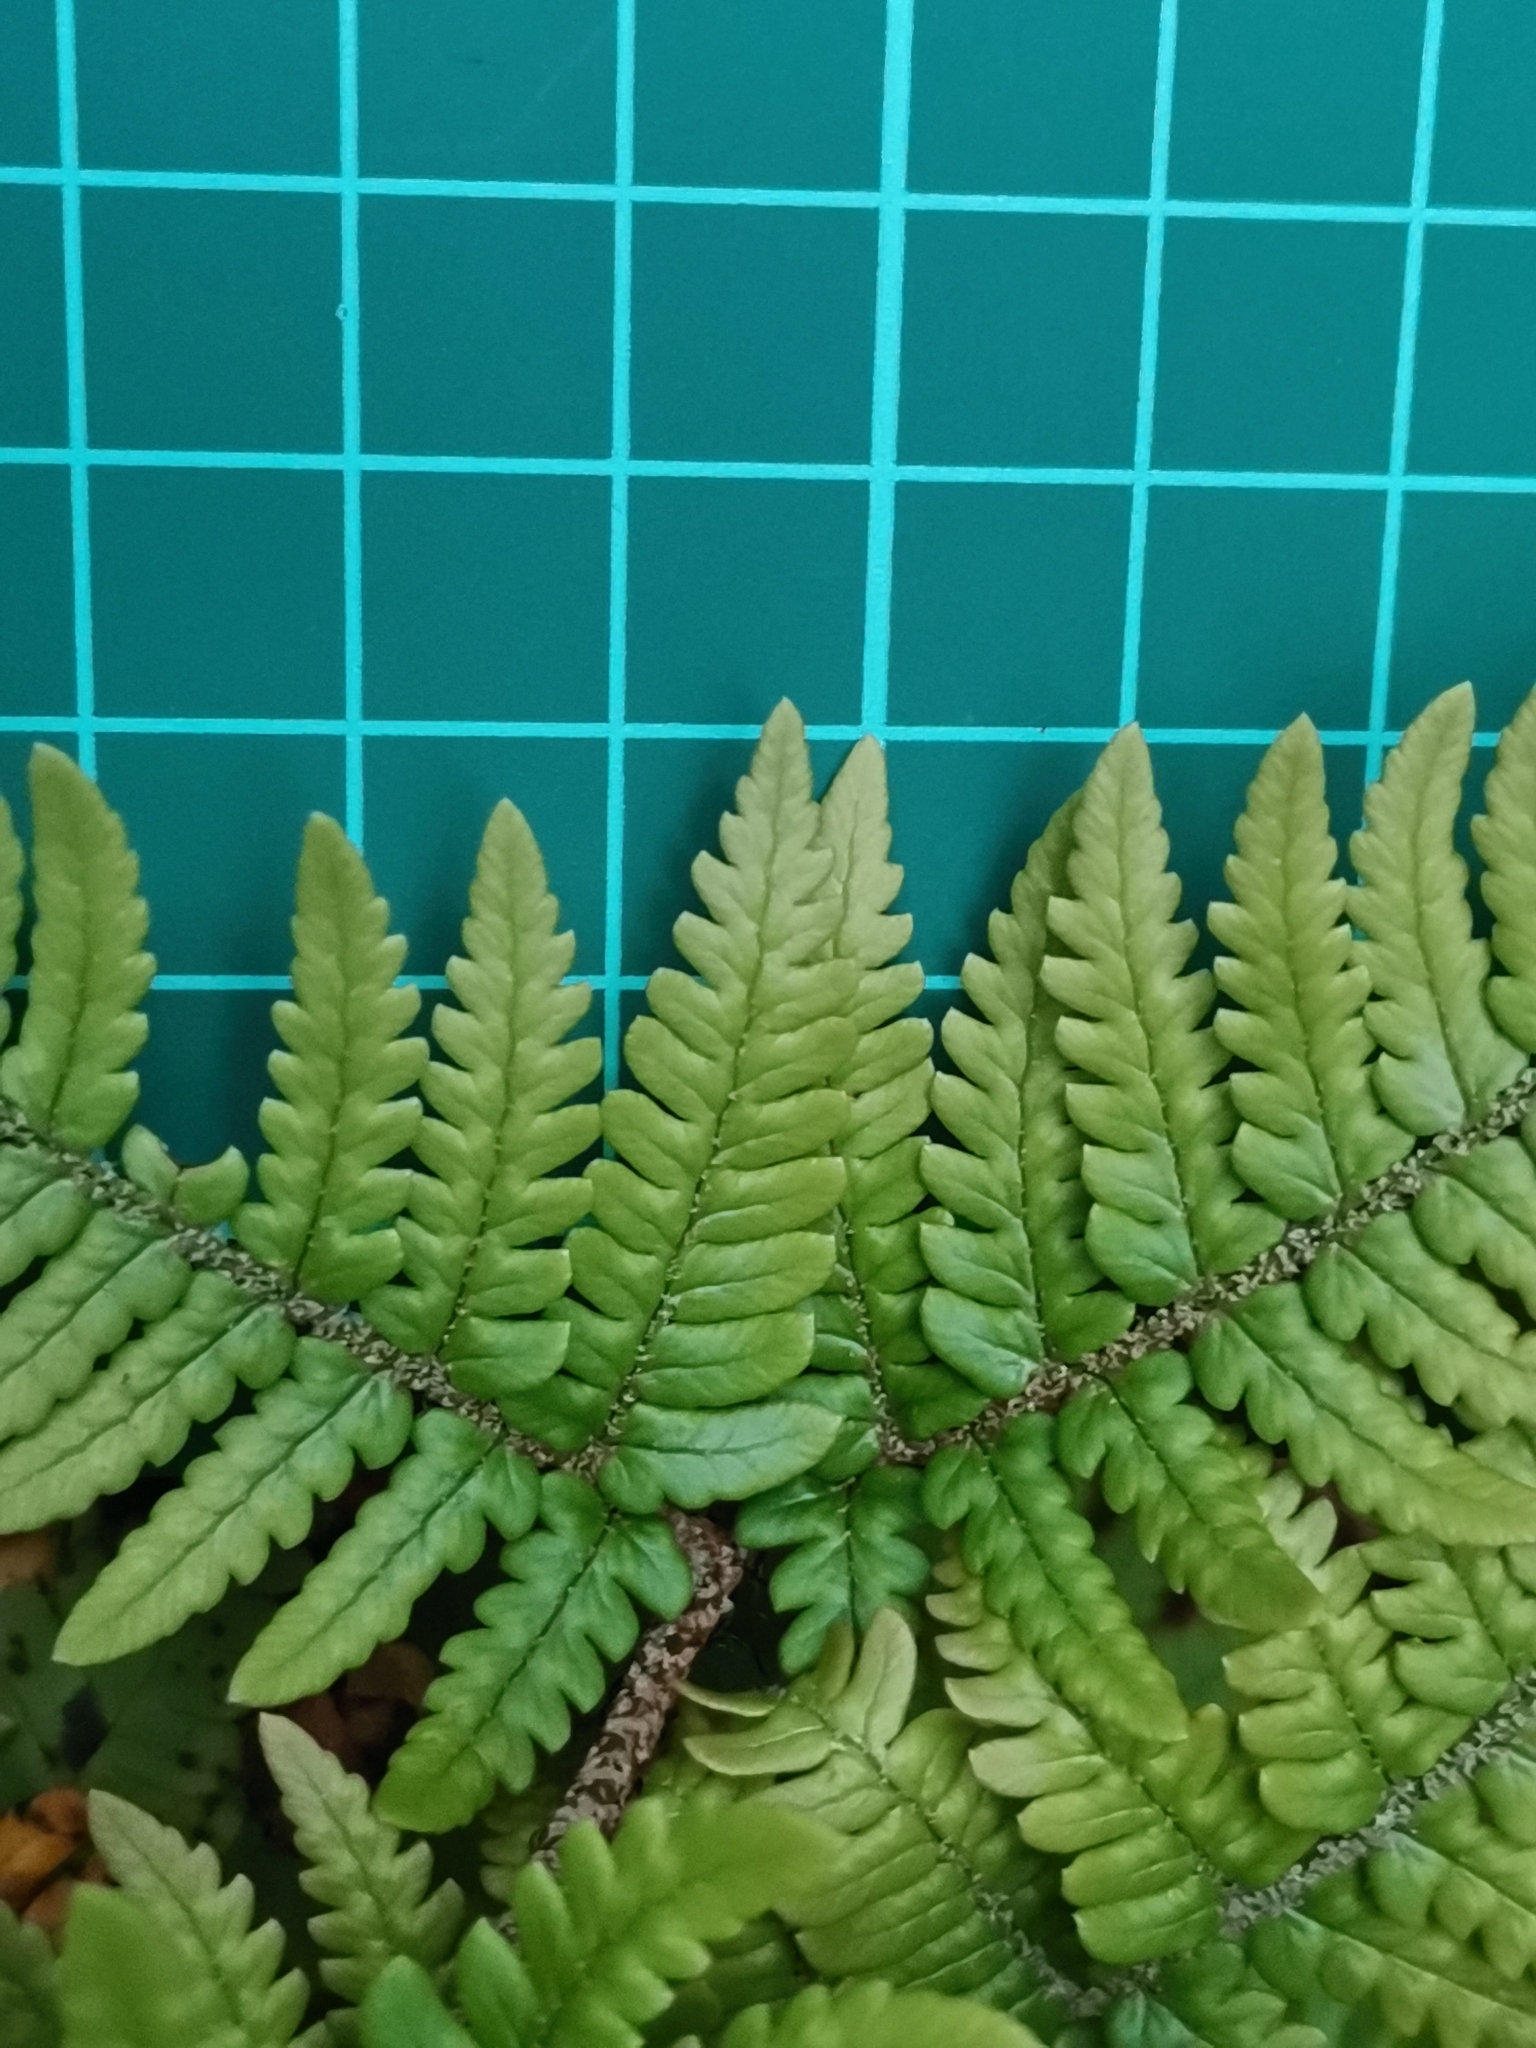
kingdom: Plantae
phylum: Tracheophyta
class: Polypodiopsida
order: Polypodiales
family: Dryopteridaceae
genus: Dryopteris
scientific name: Dryopteris bissetiana
